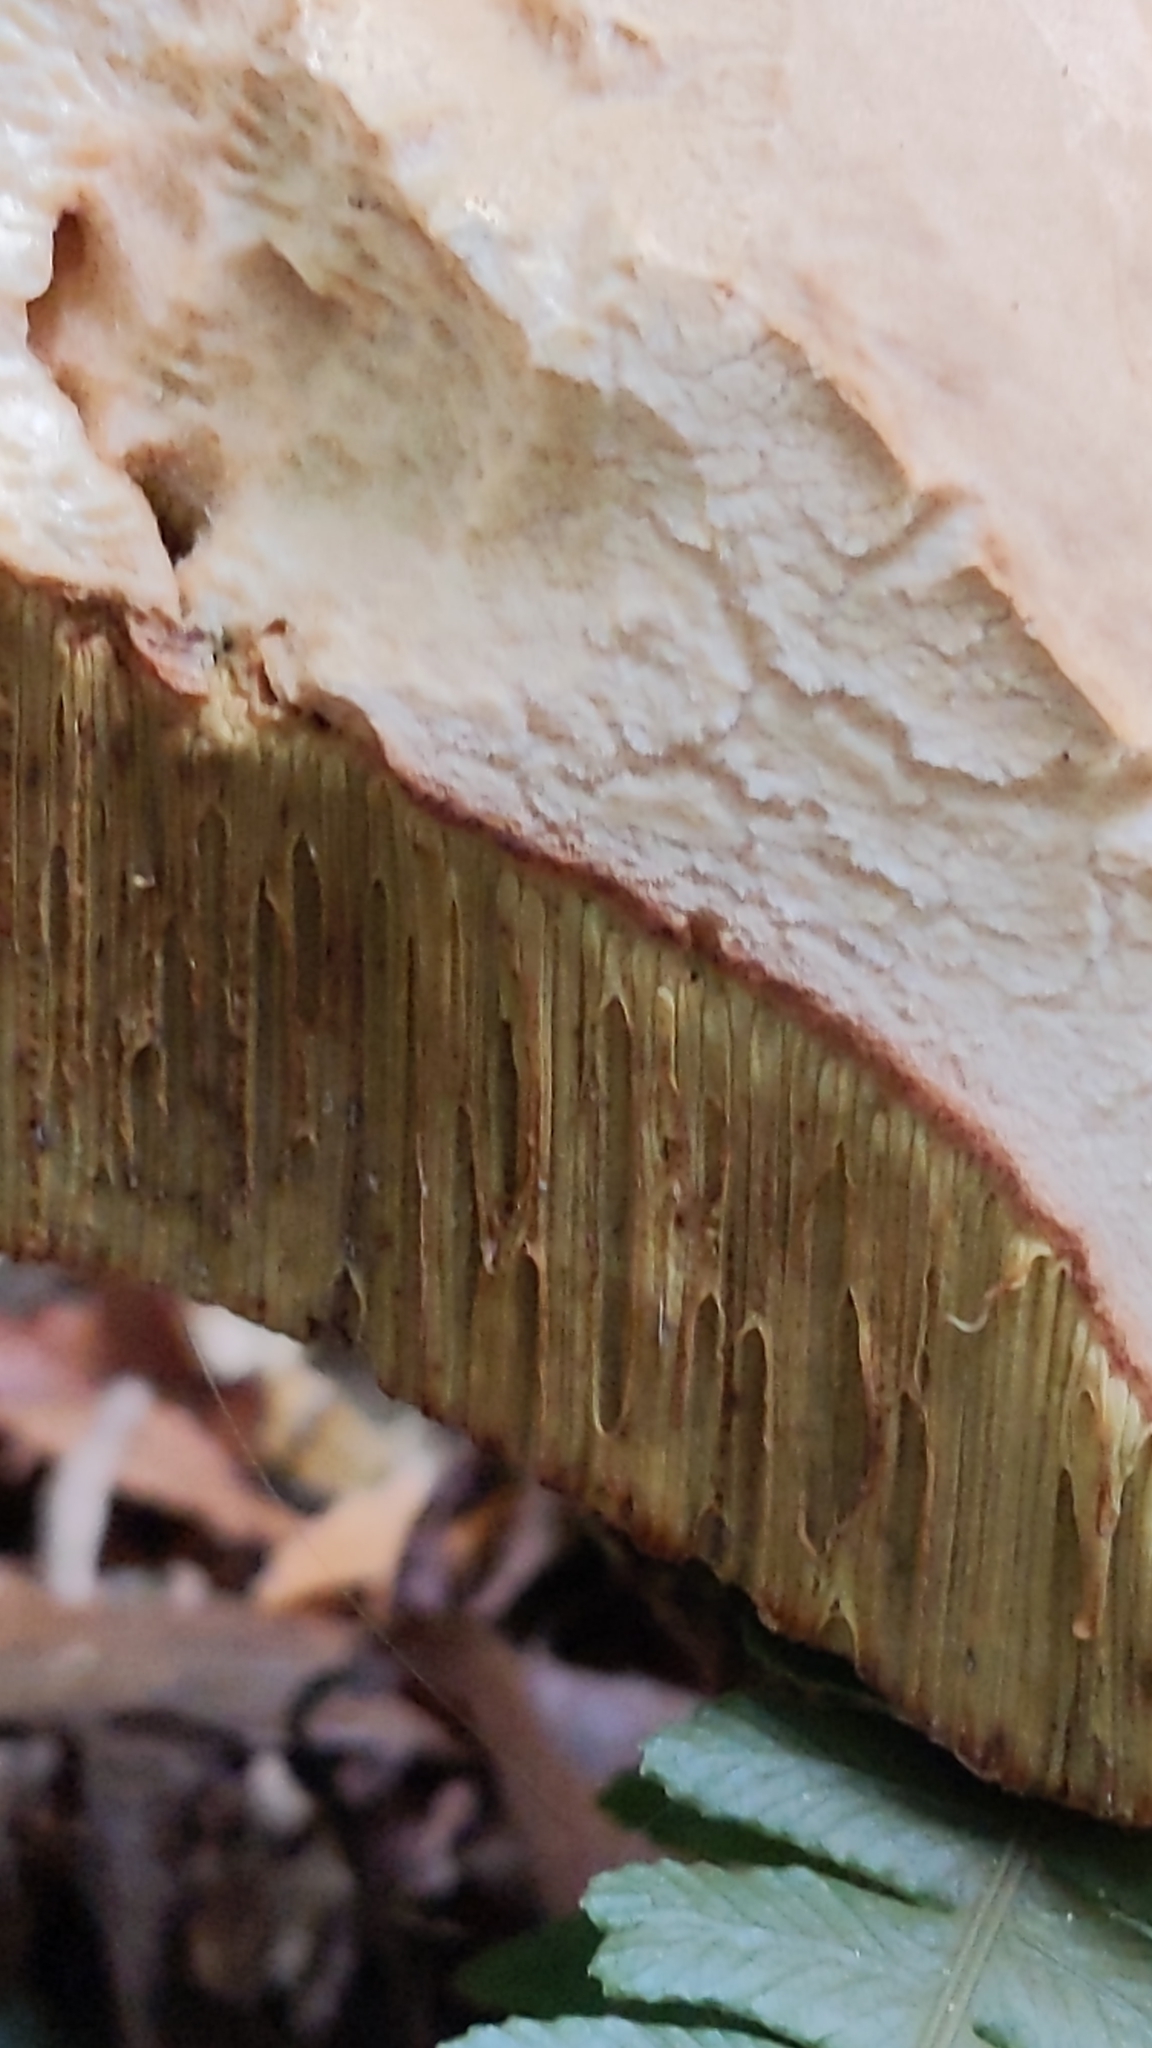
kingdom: Fungi
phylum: Basidiomycota
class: Agaricomycetes
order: Boletales
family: Boletaceae
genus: Boletus
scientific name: Boletus edulis
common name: Cep
